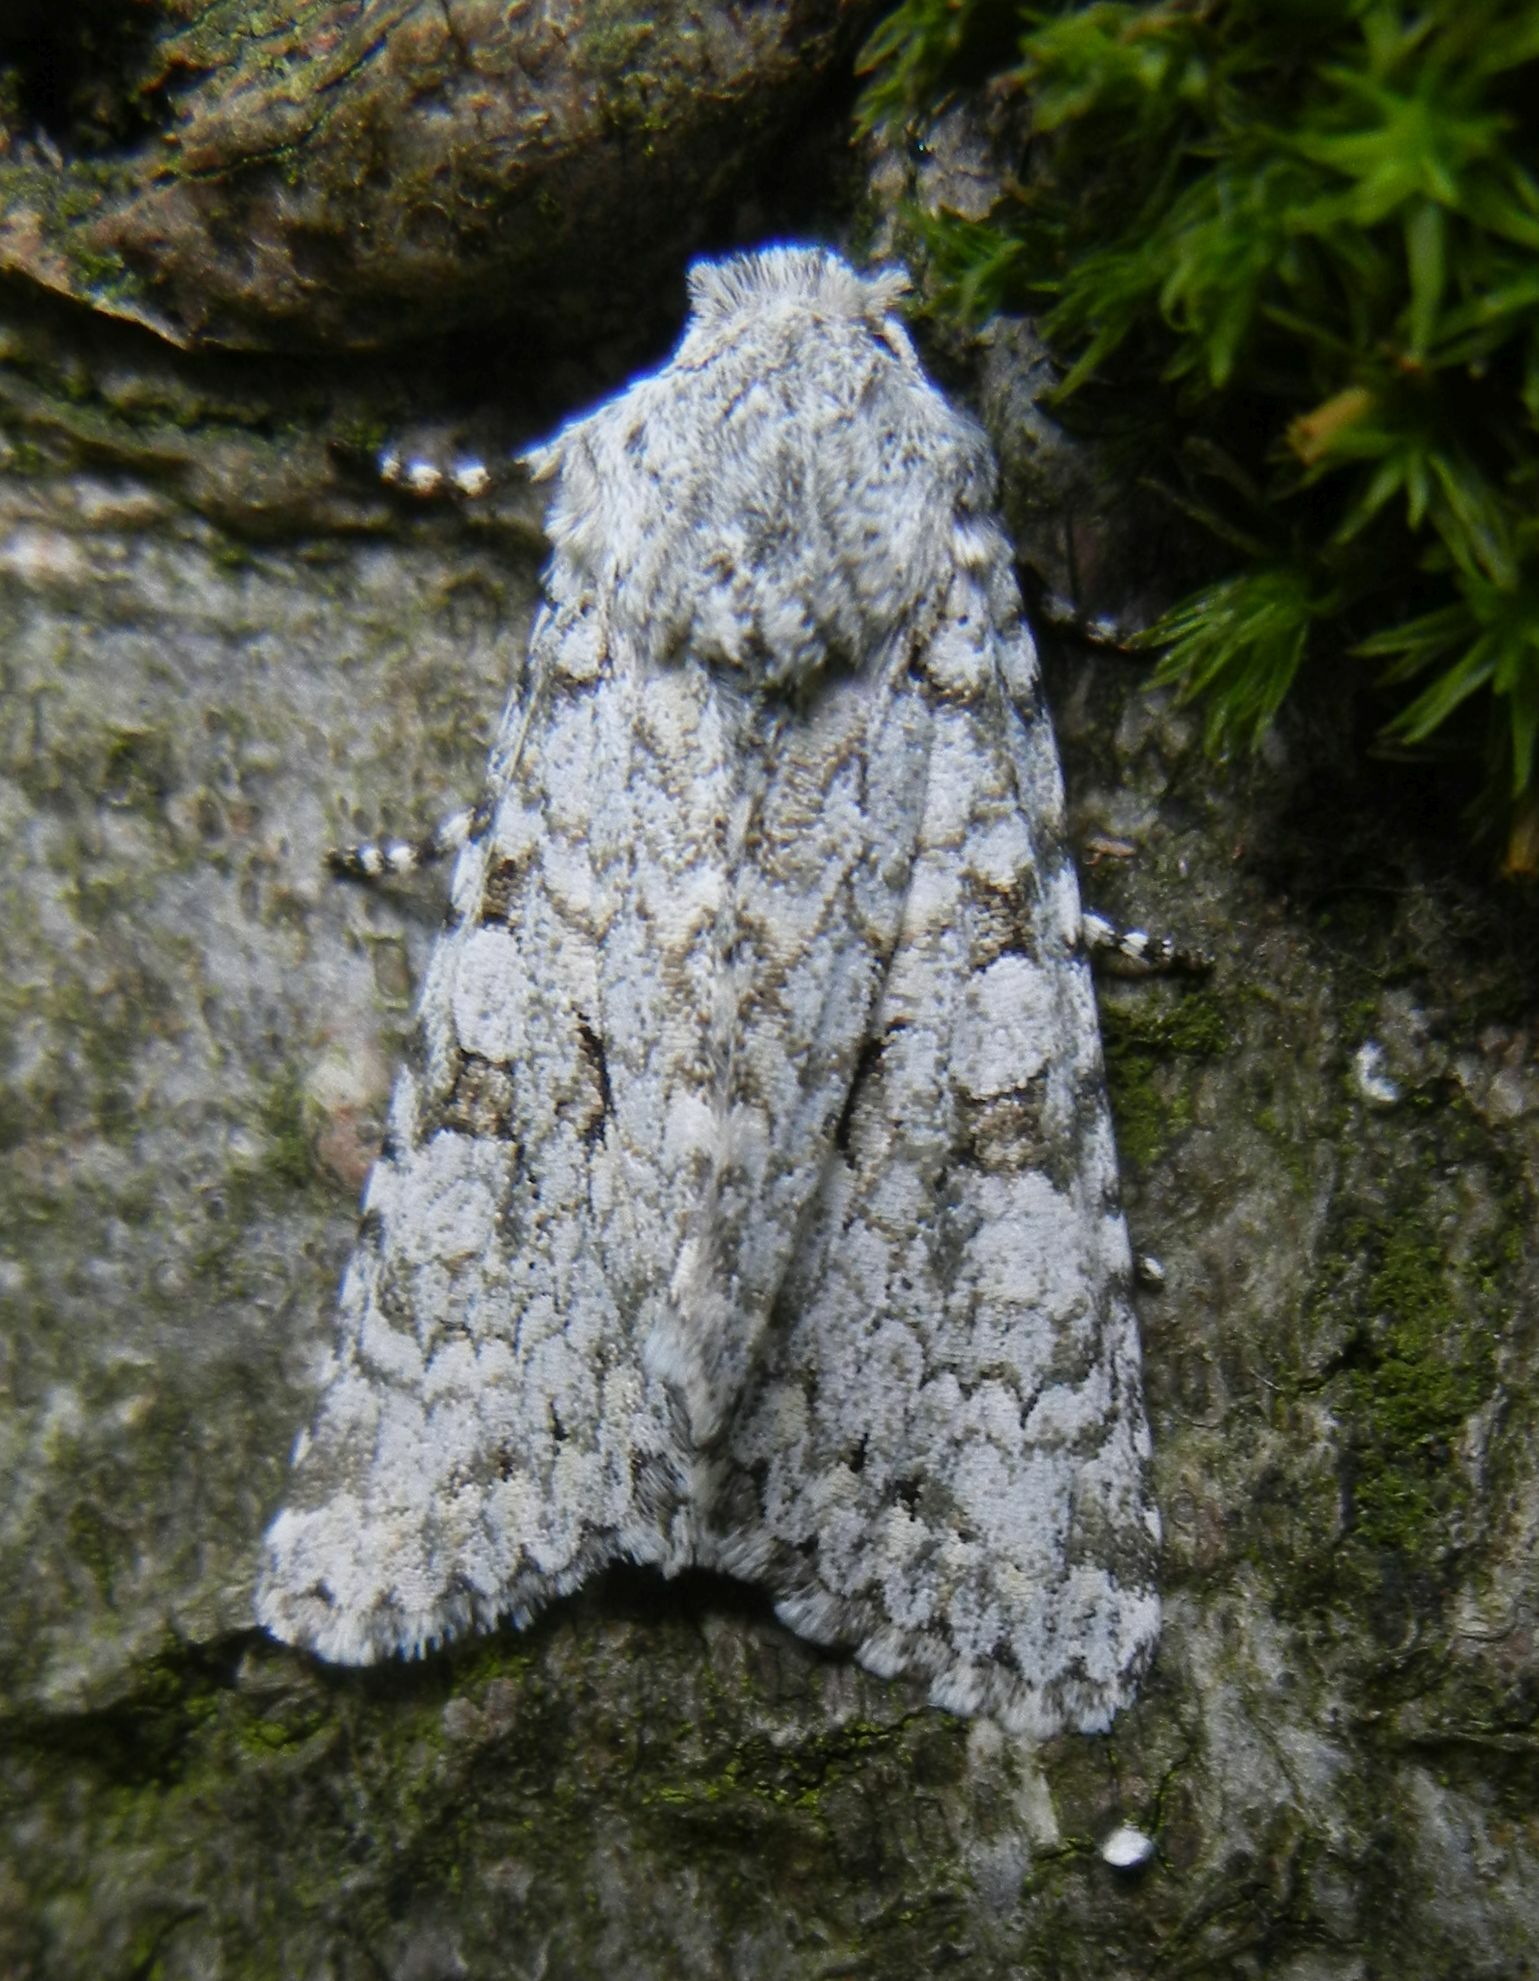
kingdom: Animalia
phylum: Arthropoda
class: Insecta
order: Lepidoptera
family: Noctuidae
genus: Antitype
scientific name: Antitype chi
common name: Grey chi
